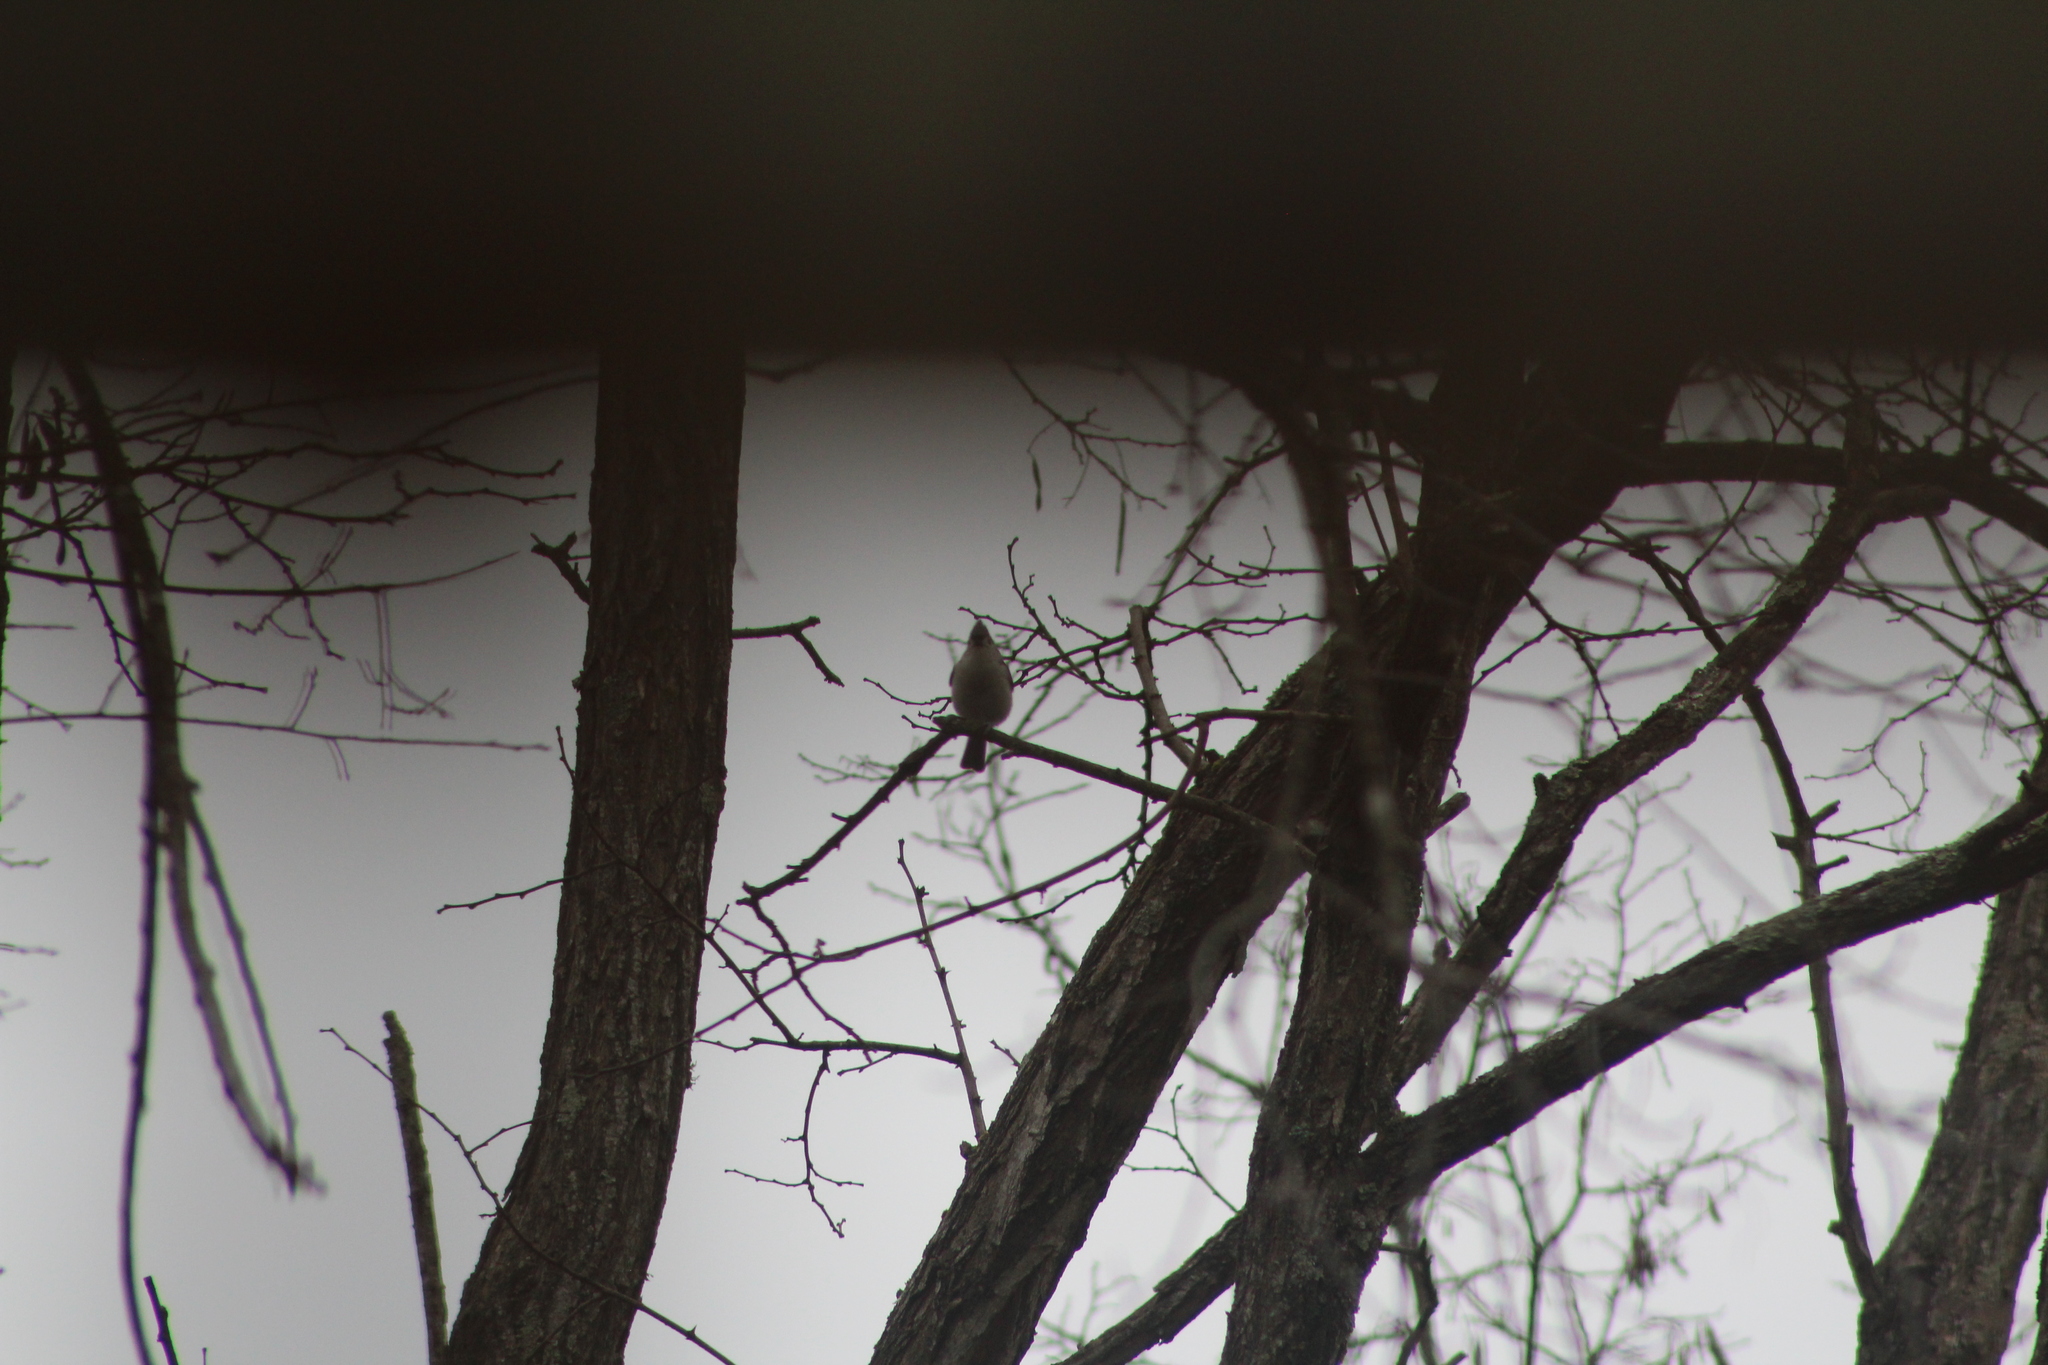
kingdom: Animalia
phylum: Chordata
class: Aves
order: Passeriformes
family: Paridae
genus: Baeolophus
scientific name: Baeolophus bicolor
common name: Tufted titmouse
